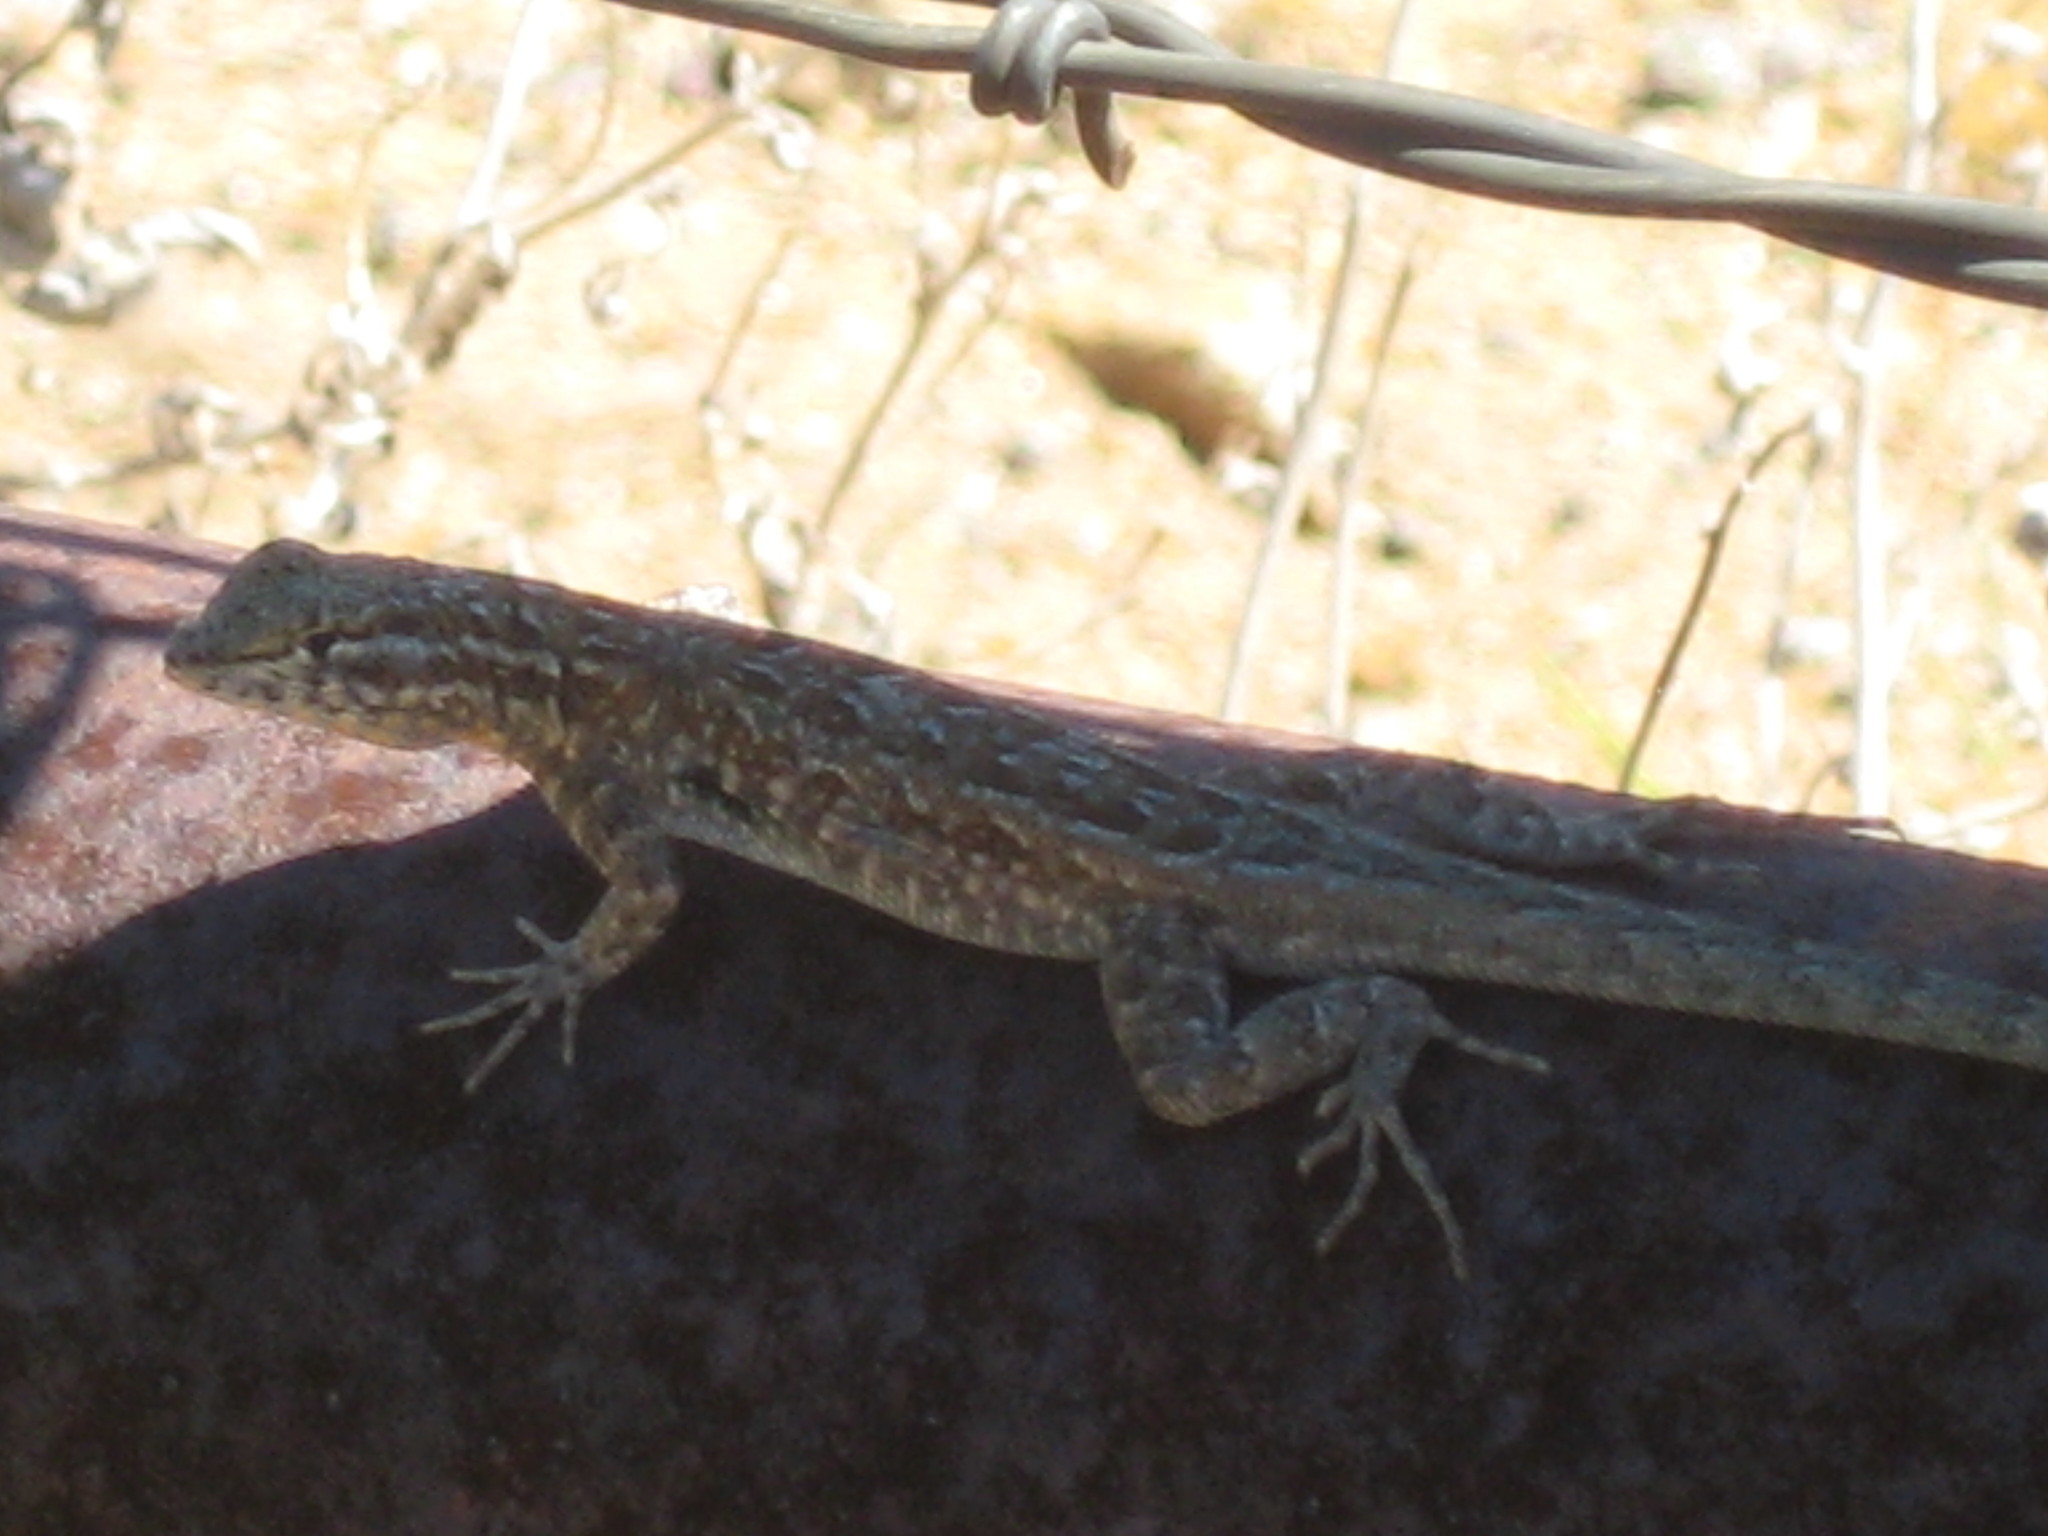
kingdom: Animalia
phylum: Chordata
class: Squamata
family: Phrynosomatidae
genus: Uta
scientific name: Uta stansburiana
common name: Side-blotched lizard
